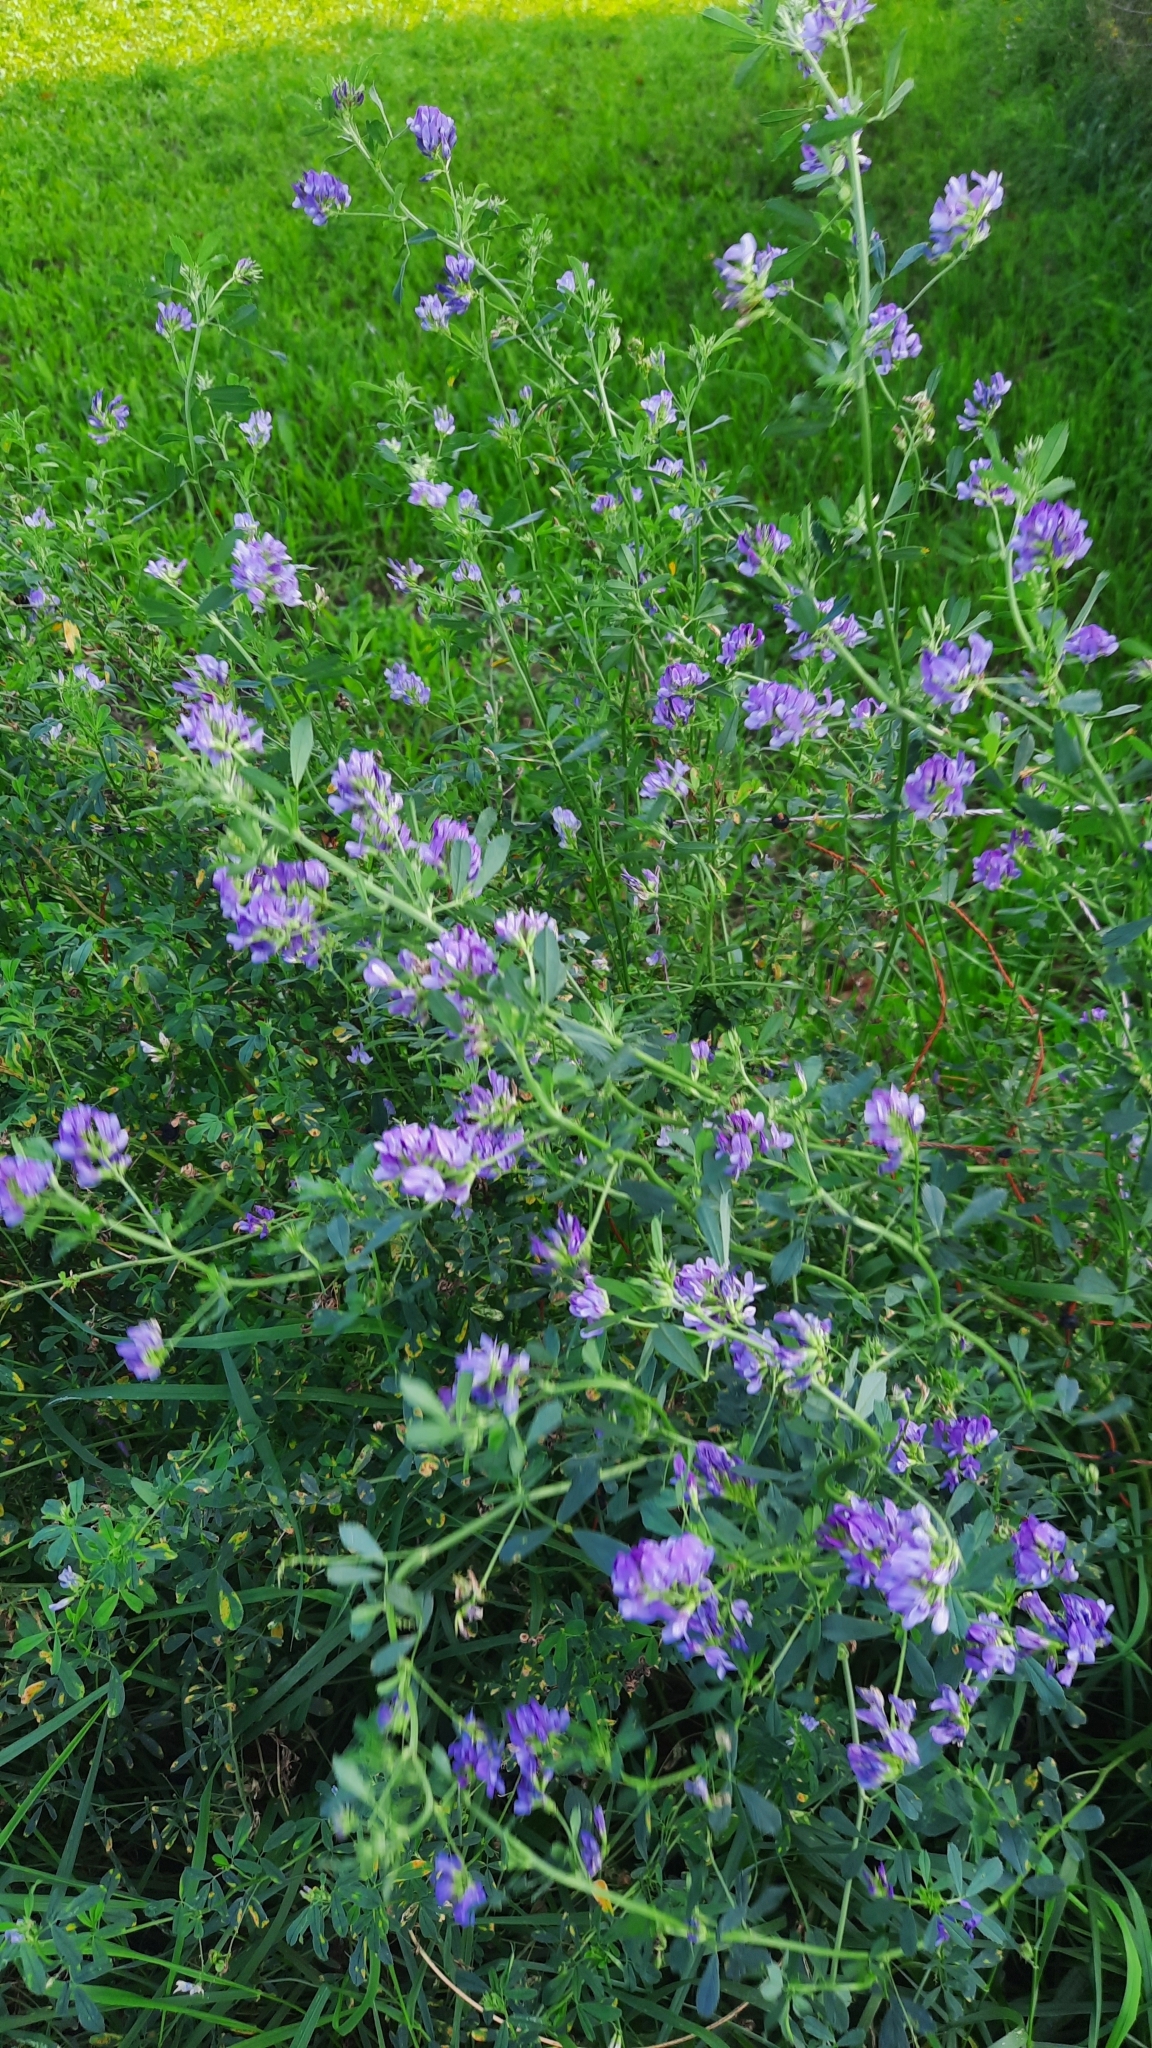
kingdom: Plantae
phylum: Tracheophyta
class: Magnoliopsida
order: Fabales
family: Fabaceae
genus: Medicago
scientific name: Medicago sativa
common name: Alfalfa
